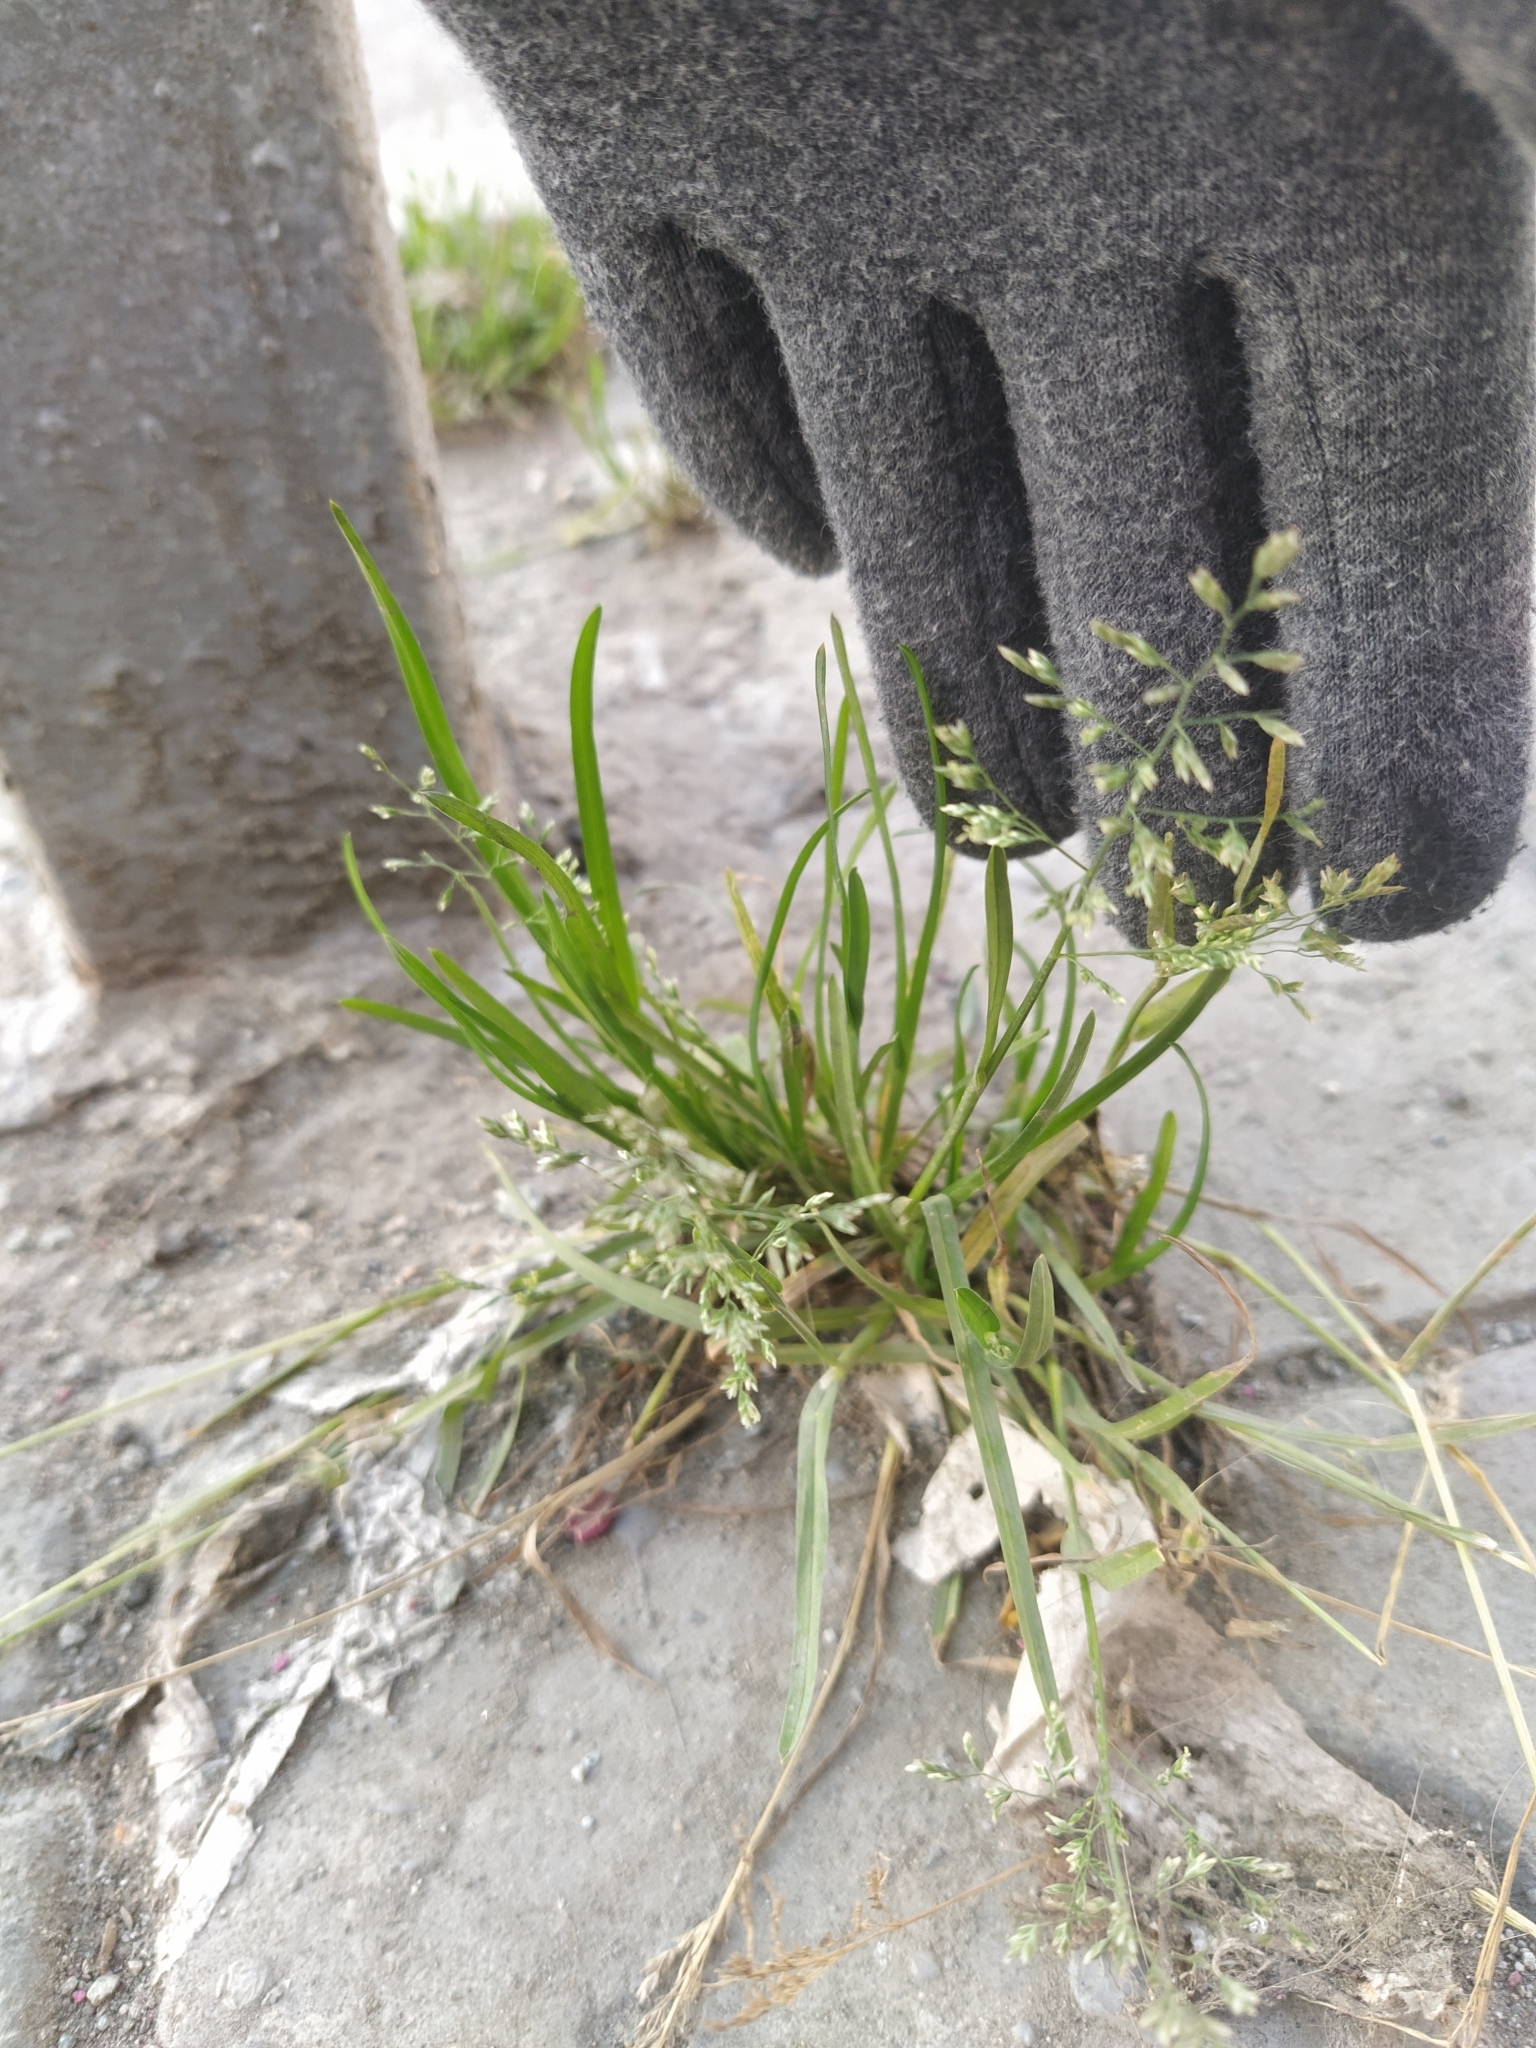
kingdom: Plantae
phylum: Tracheophyta
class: Liliopsida
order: Poales
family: Poaceae
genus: Poa
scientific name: Poa annua
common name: Annual bluegrass
